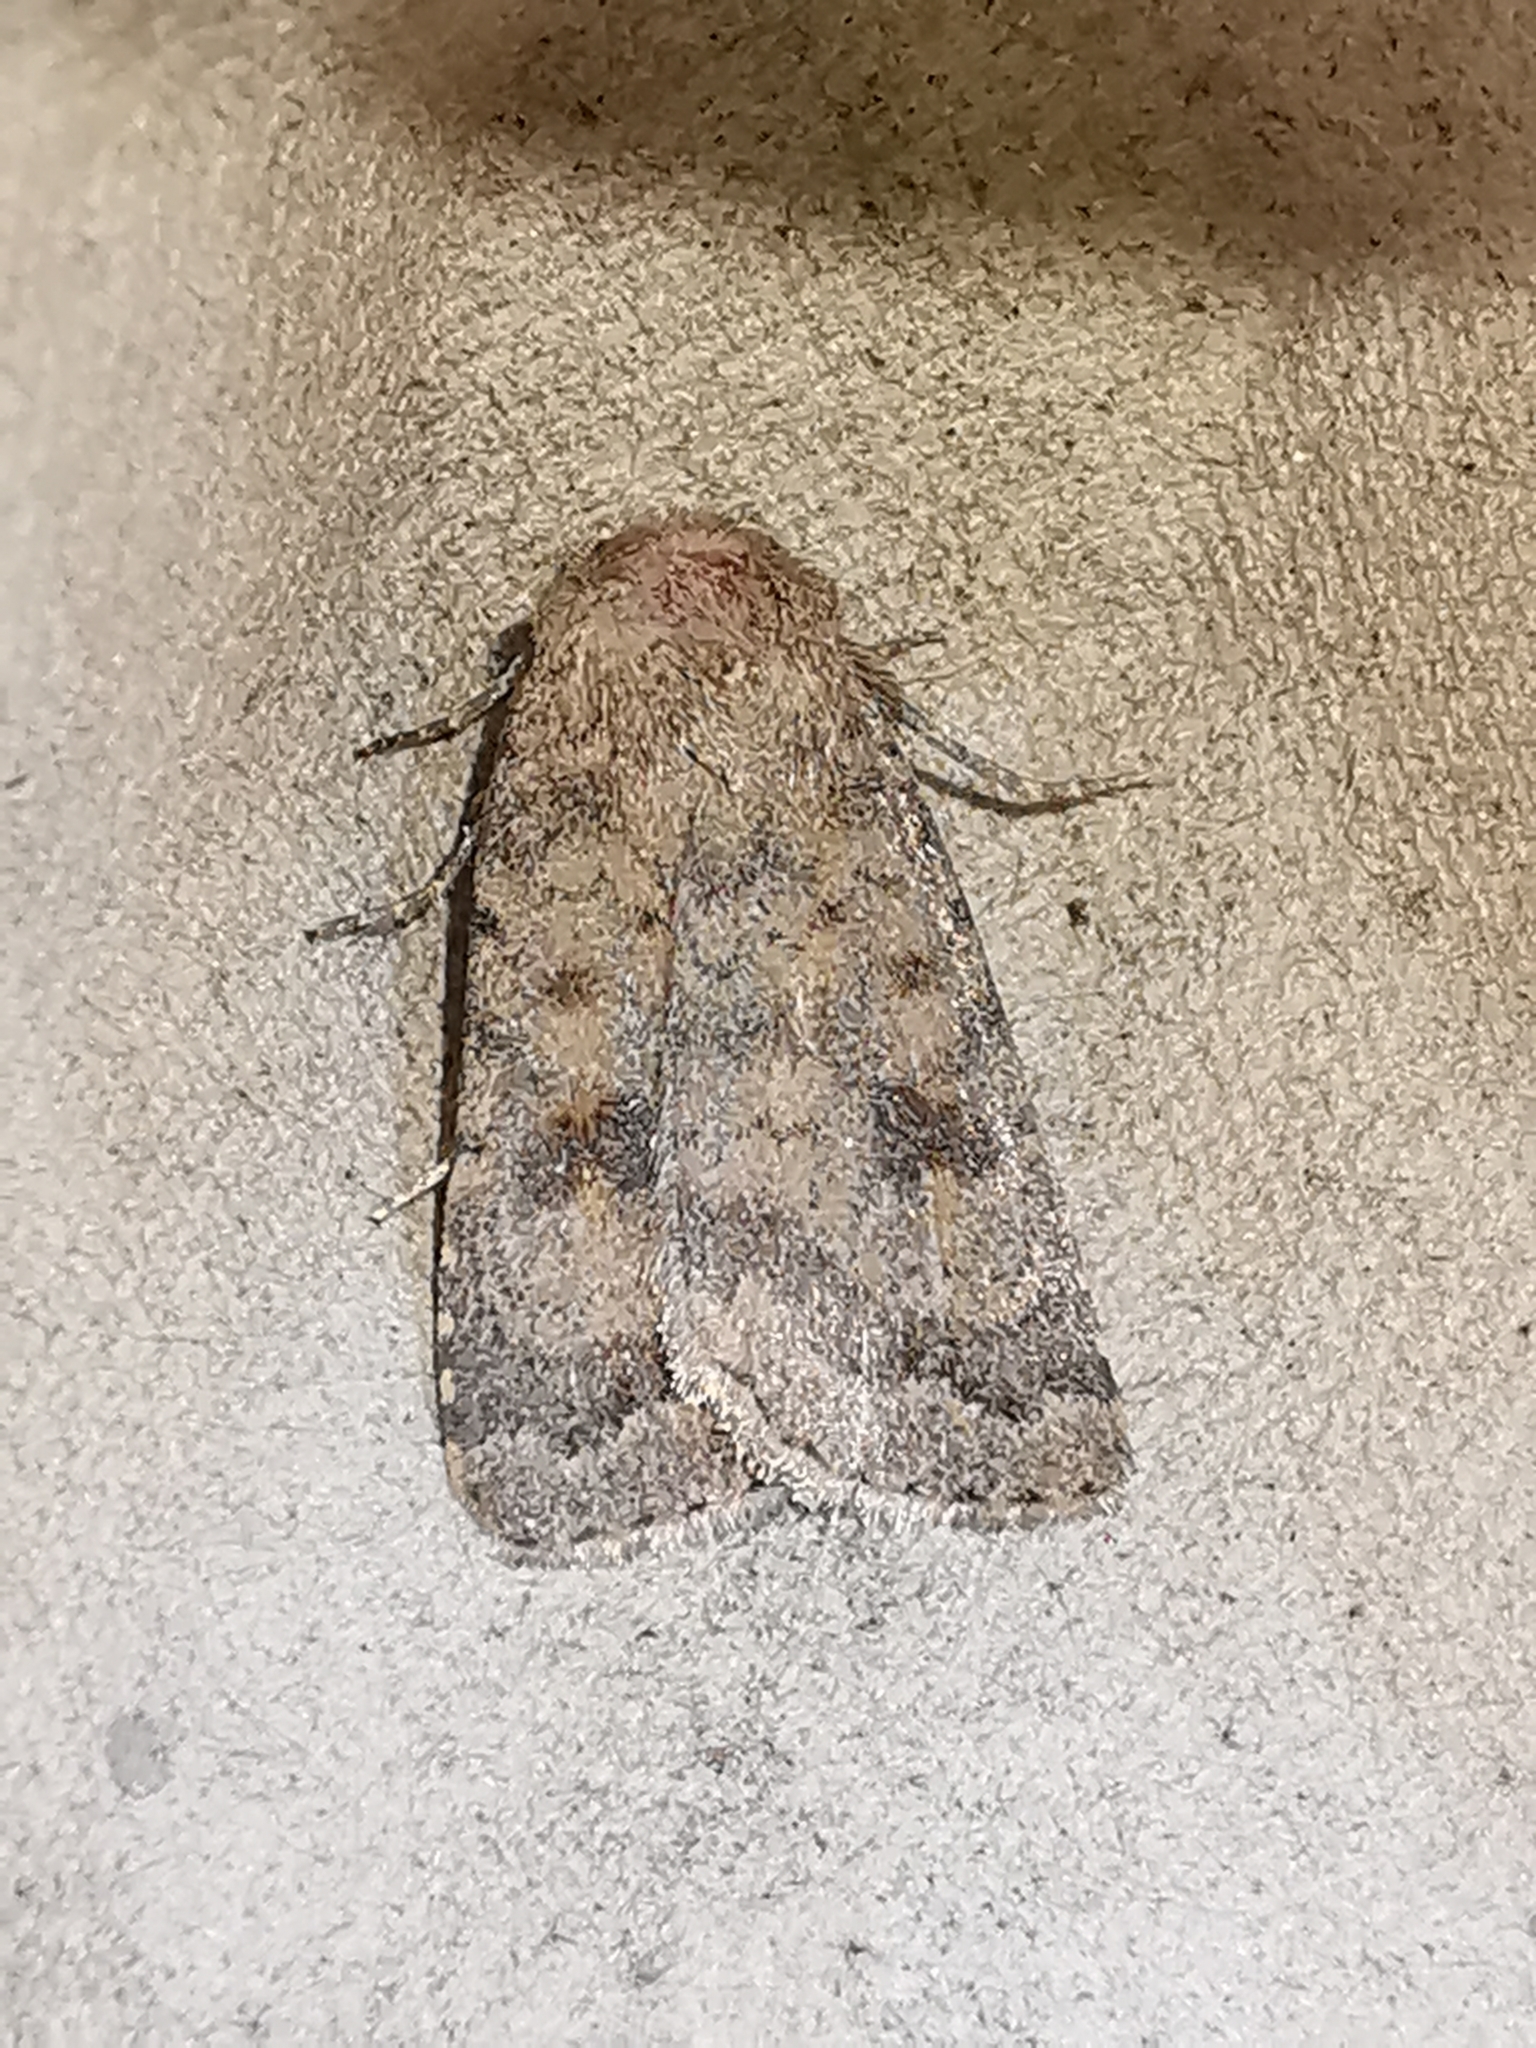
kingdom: Animalia
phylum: Arthropoda
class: Insecta
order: Lepidoptera
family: Noctuidae
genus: Caradrina
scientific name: Caradrina morpheus
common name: Mottled rustic
